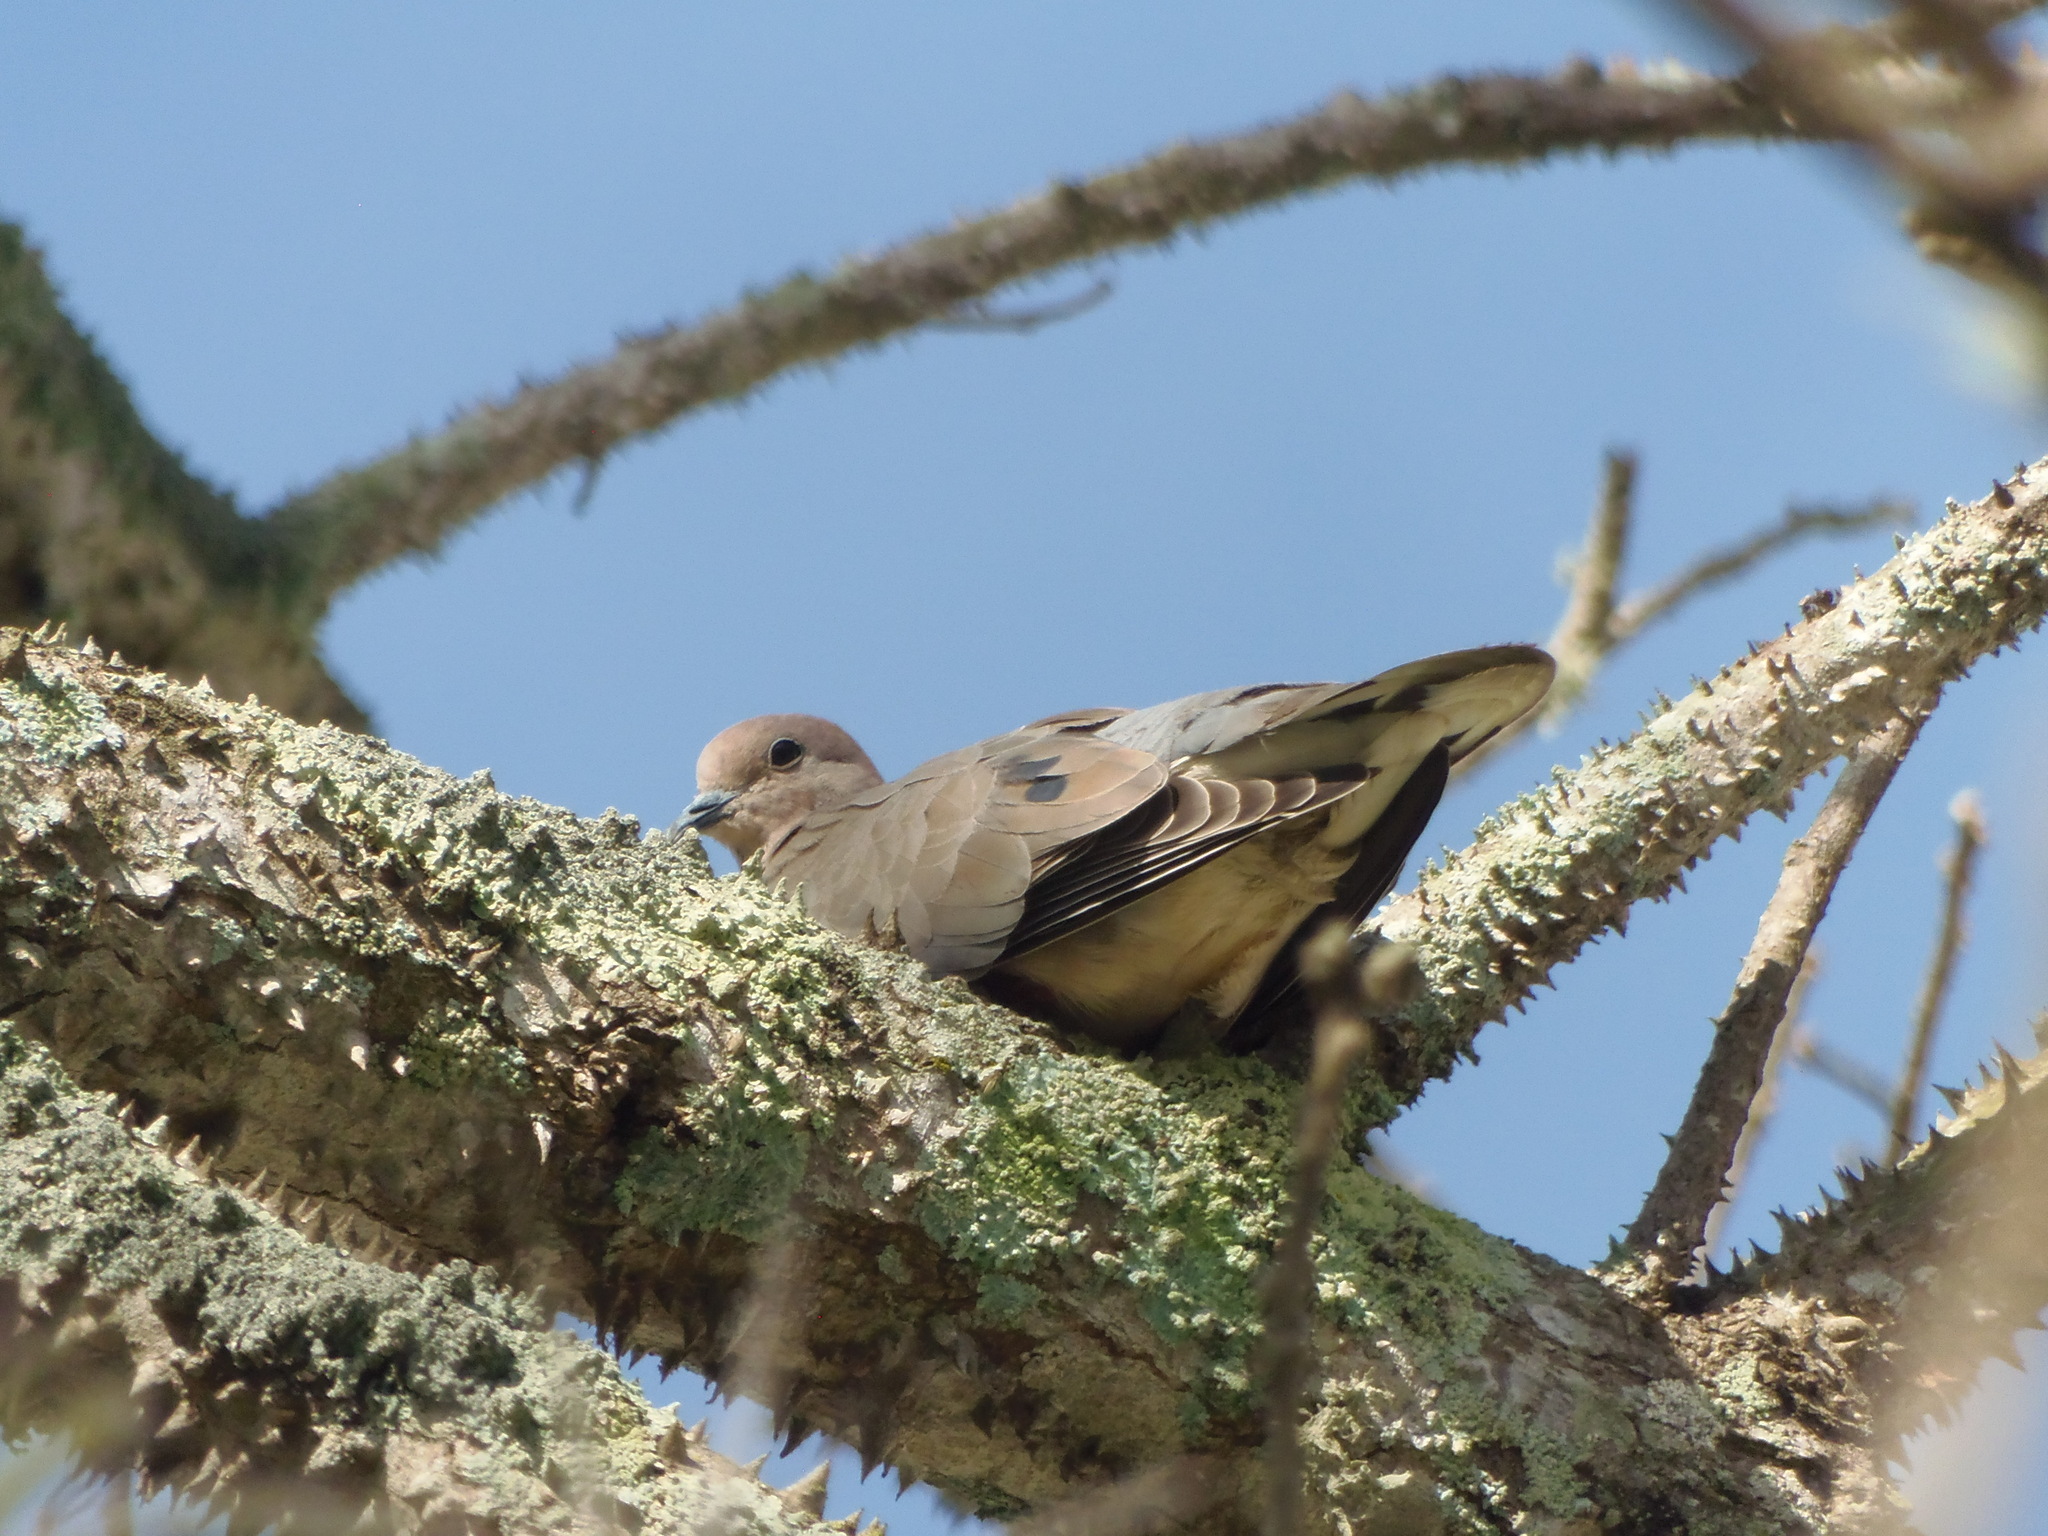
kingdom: Animalia
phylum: Chordata
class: Aves
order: Columbiformes
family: Columbidae
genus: Zenaida
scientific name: Zenaida auriculata
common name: Eared dove
